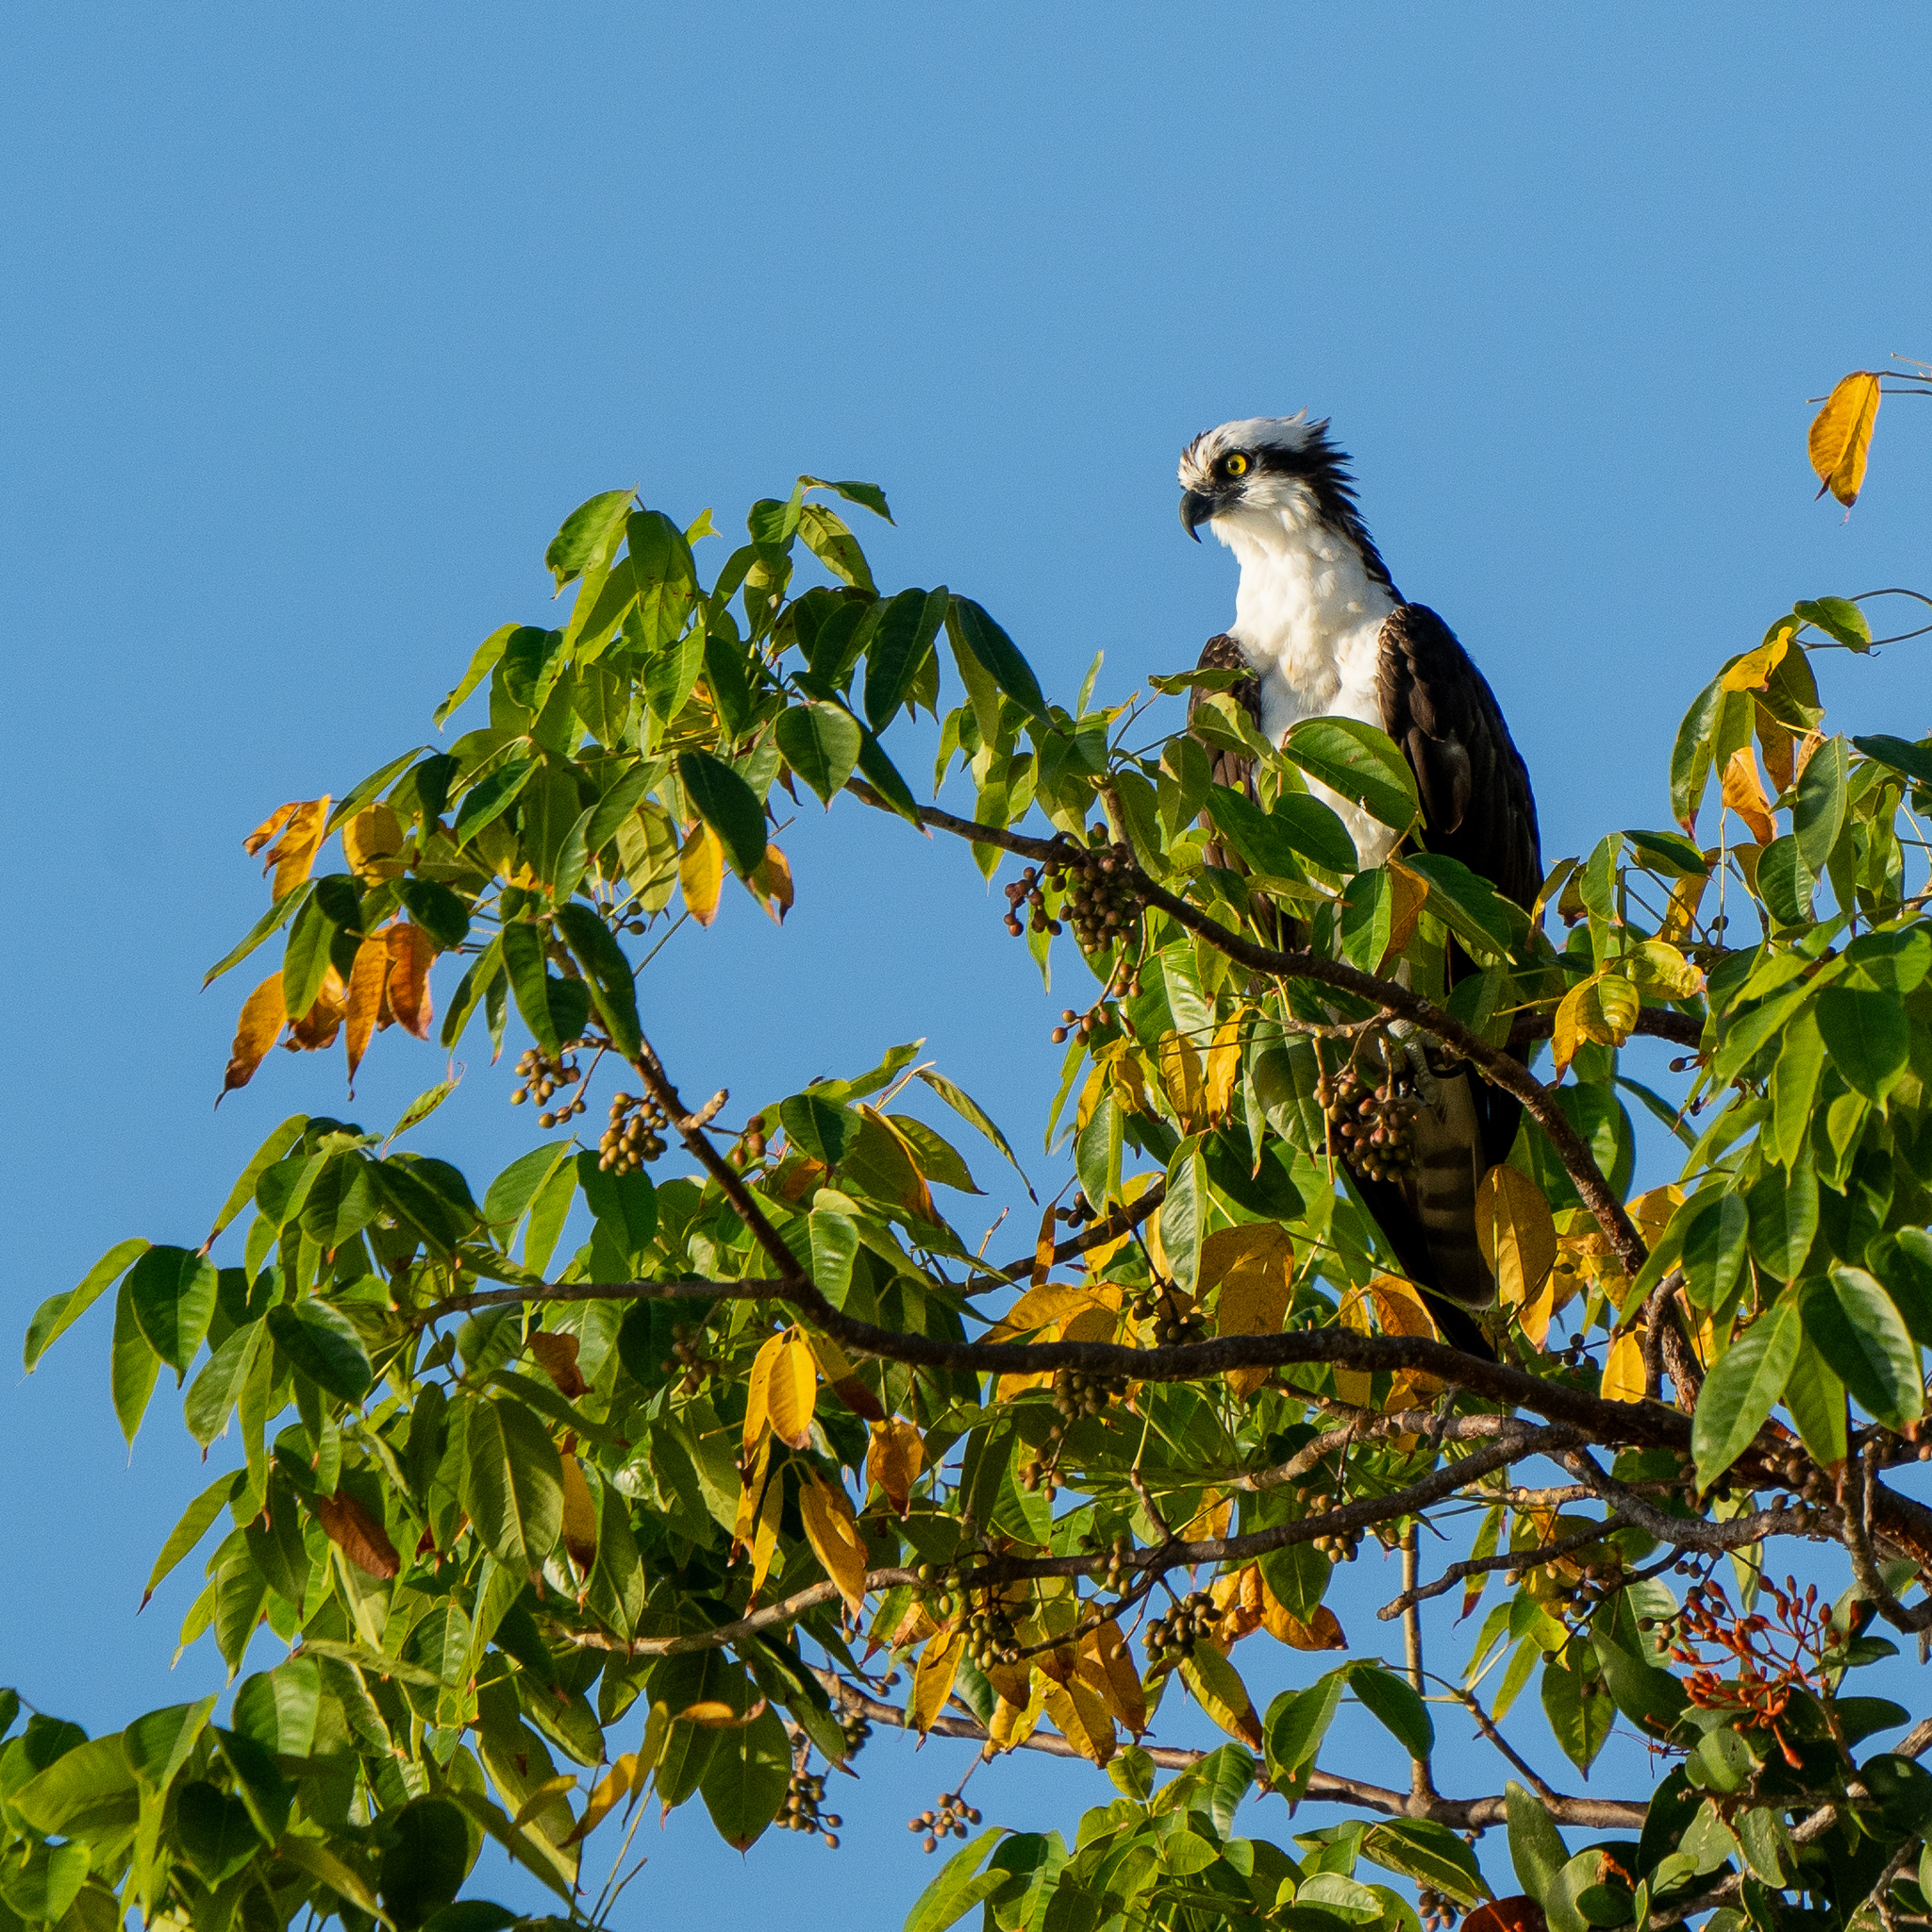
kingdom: Animalia
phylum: Chordata
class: Aves
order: Accipitriformes
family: Pandionidae
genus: Pandion
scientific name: Pandion haliaetus
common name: Osprey
